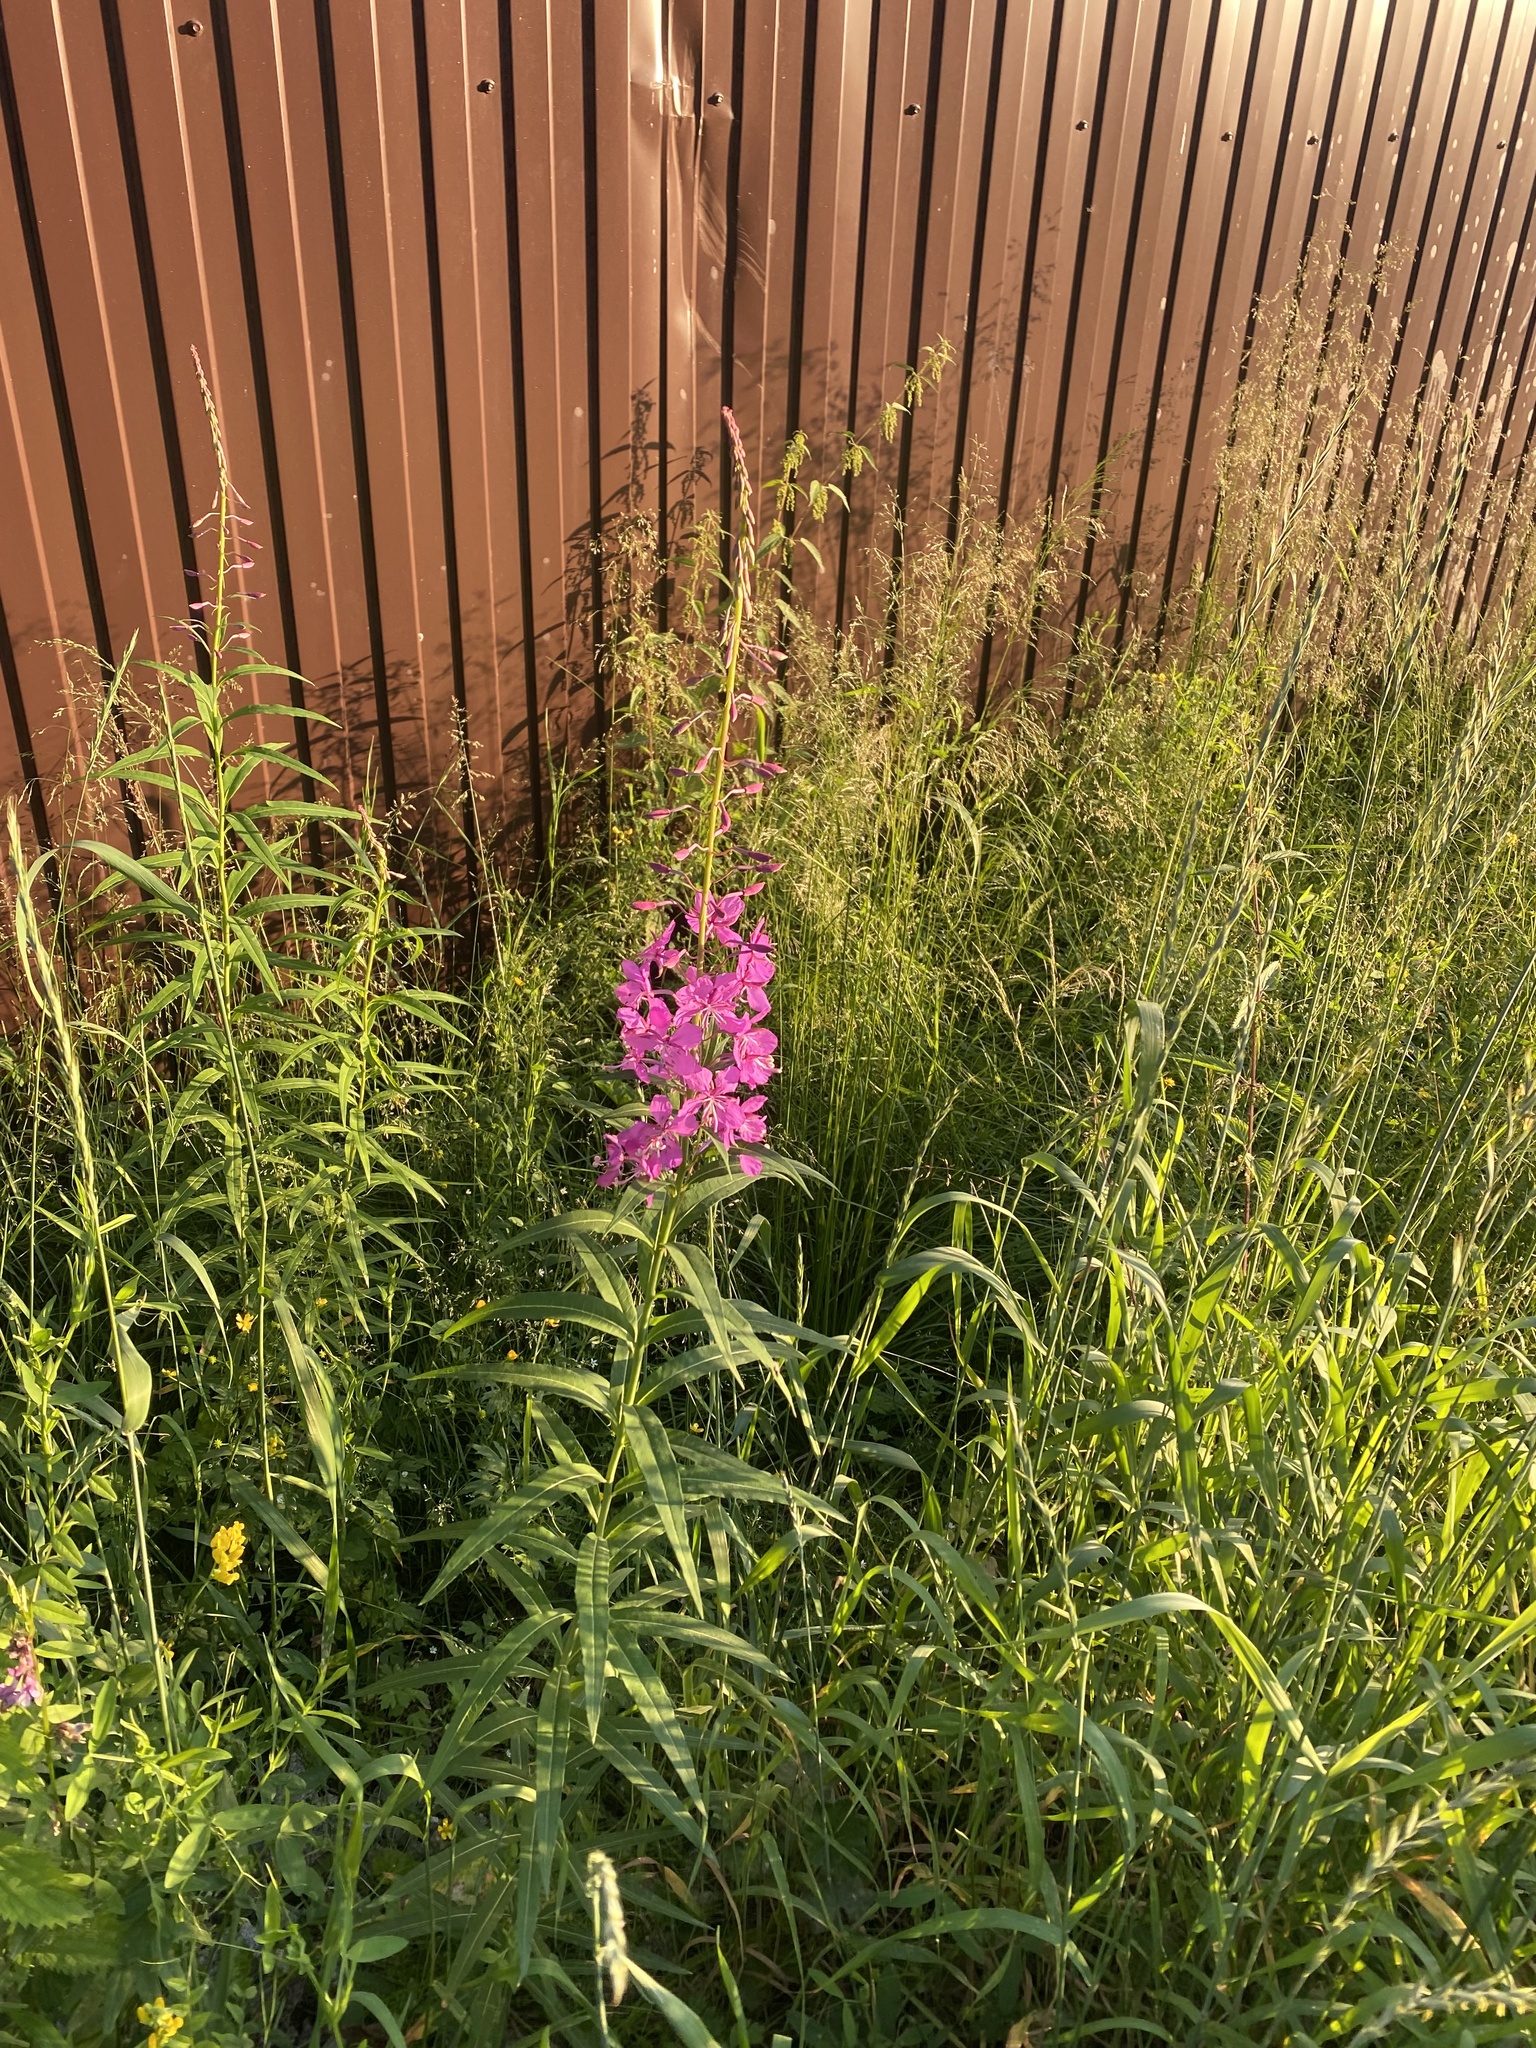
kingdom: Plantae
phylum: Tracheophyta
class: Magnoliopsida
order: Myrtales
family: Onagraceae
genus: Chamaenerion
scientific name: Chamaenerion angustifolium
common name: Fireweed
